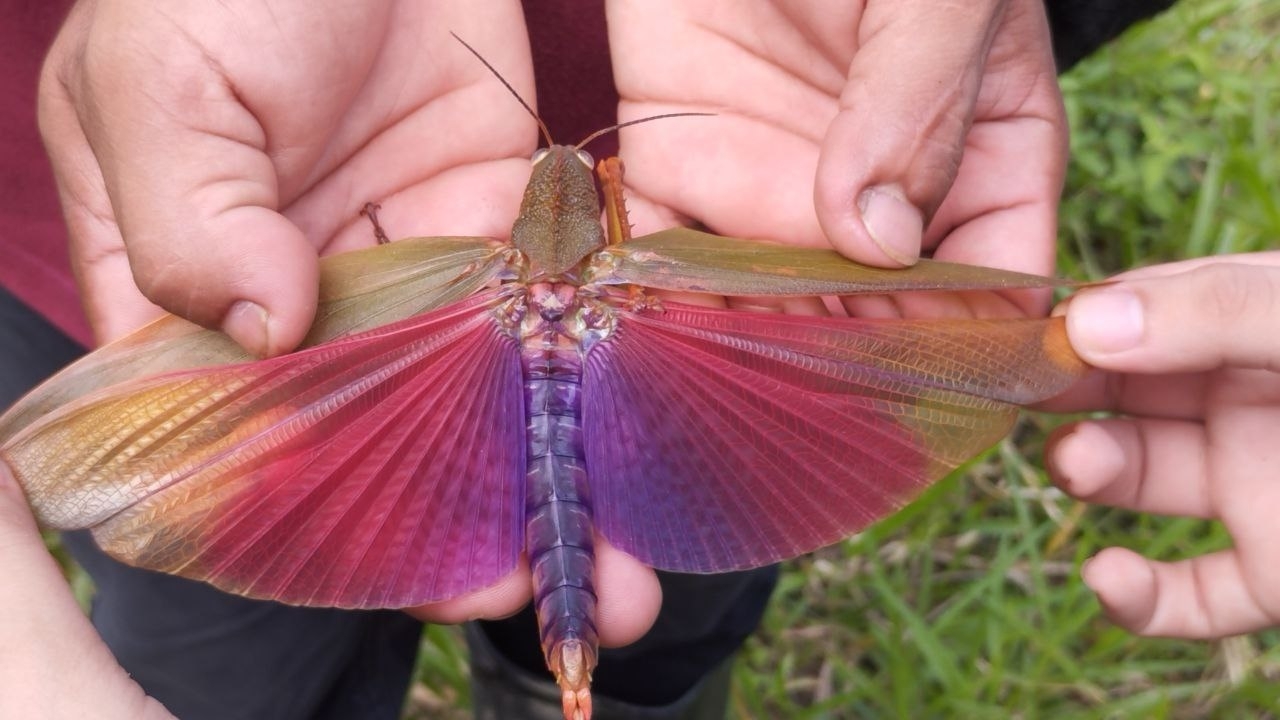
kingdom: Animalia
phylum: Arthropoda
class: Insecta
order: Orthoptera
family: Romaleidae
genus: Titanacris
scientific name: Titanacris gloriosa
